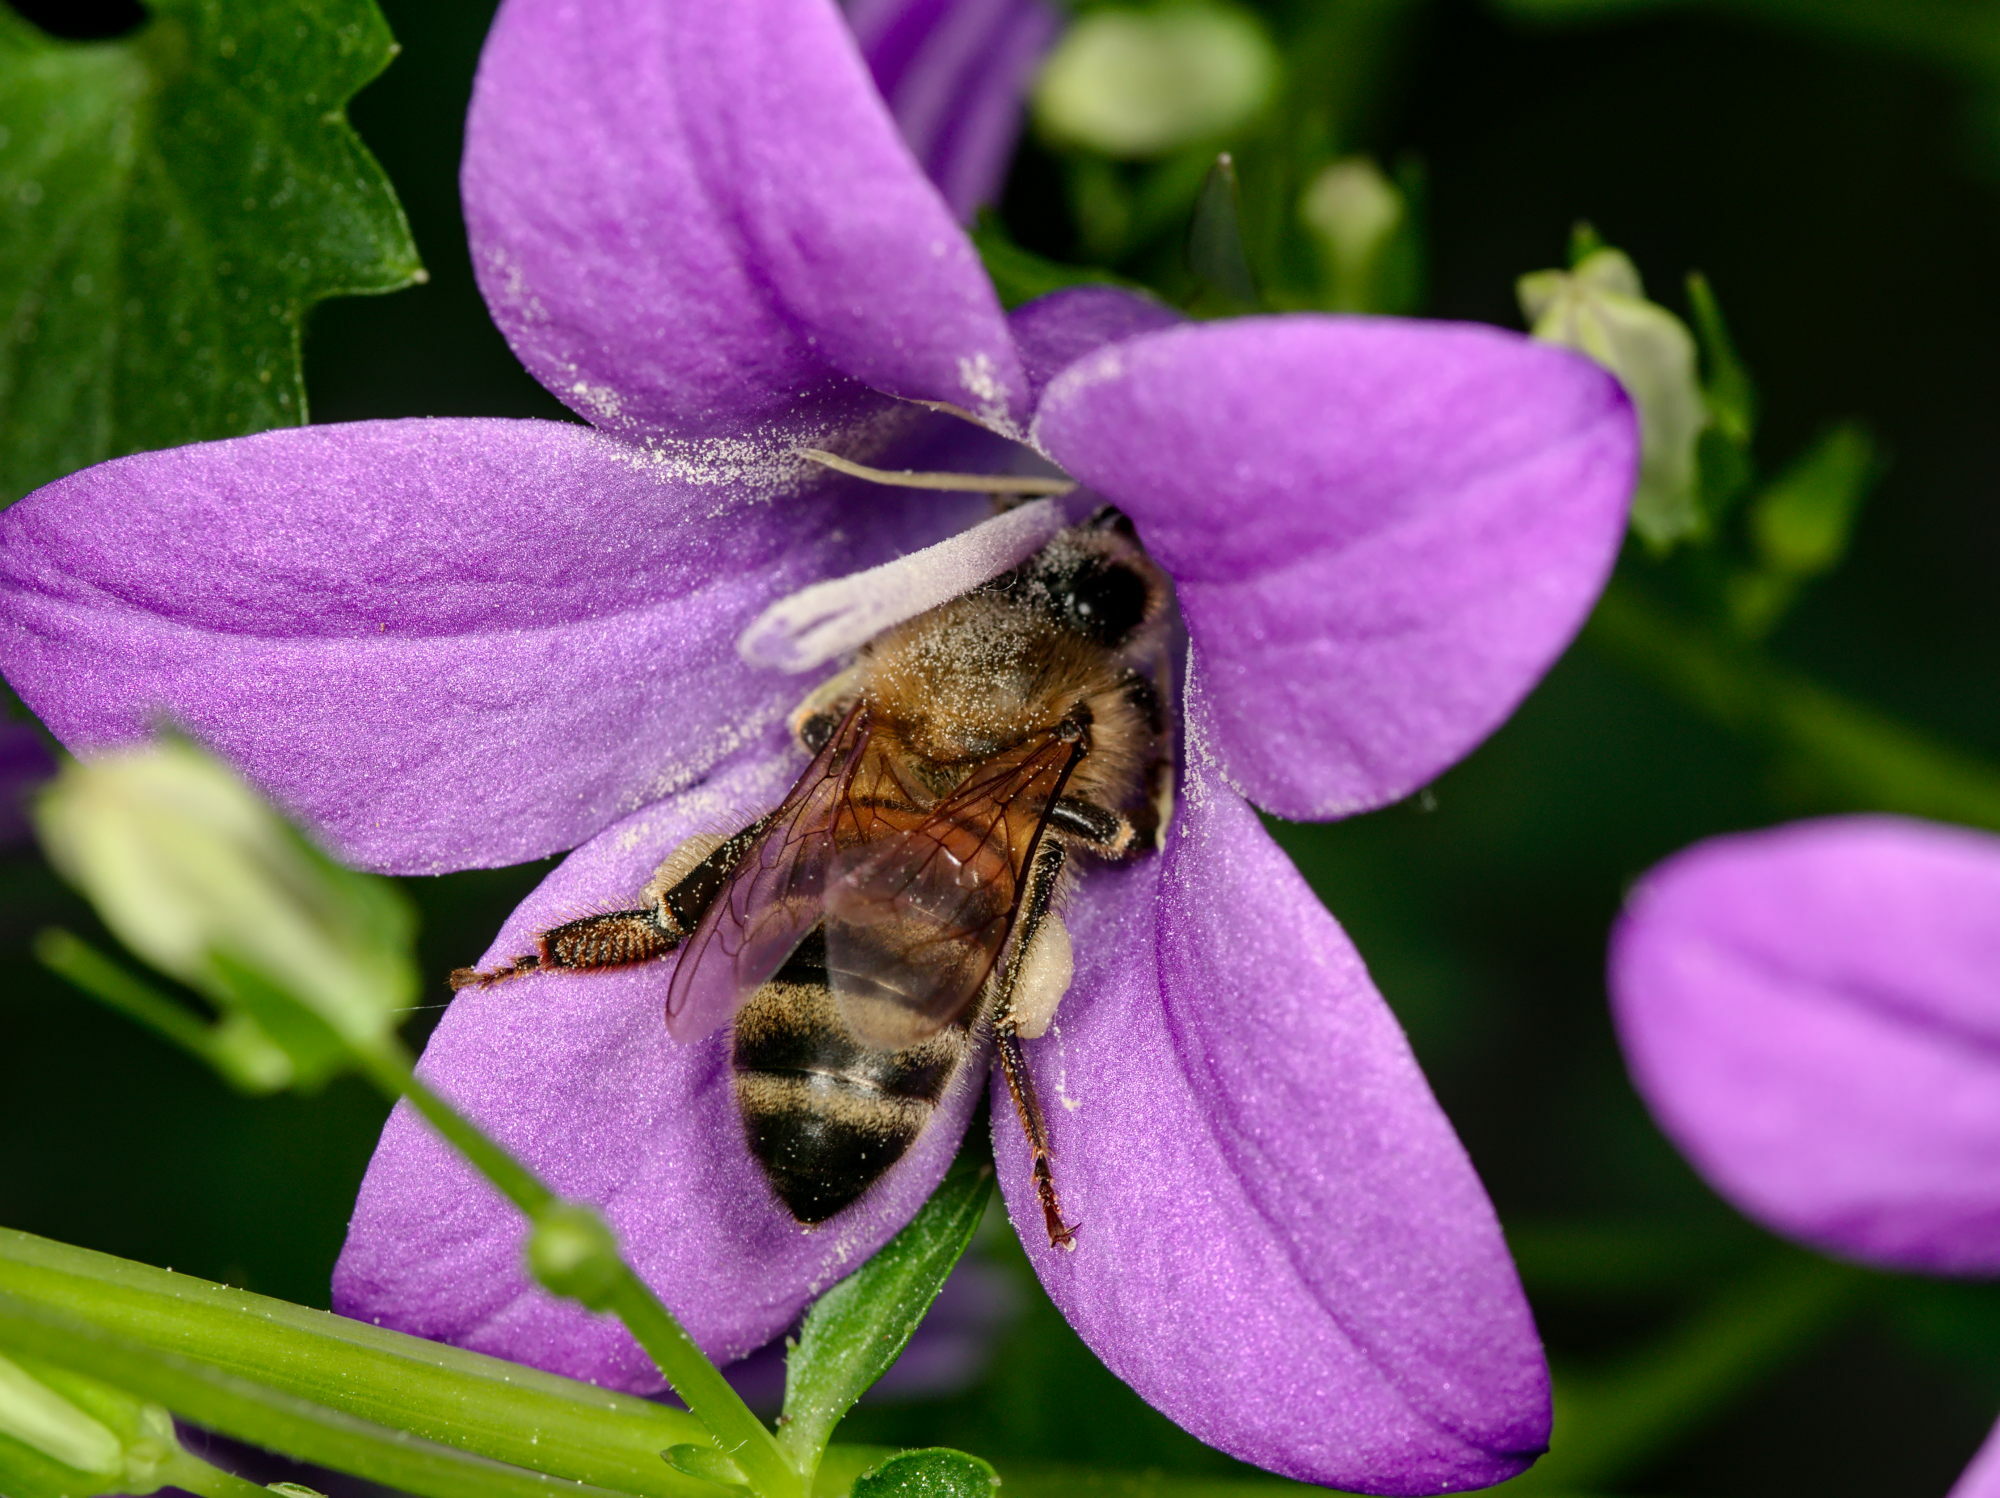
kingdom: Animalia
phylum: Arthropoda
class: Insecta
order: Hymenoptera
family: Apidae
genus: Apis
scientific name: Apis mellifera
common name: Honey bee
